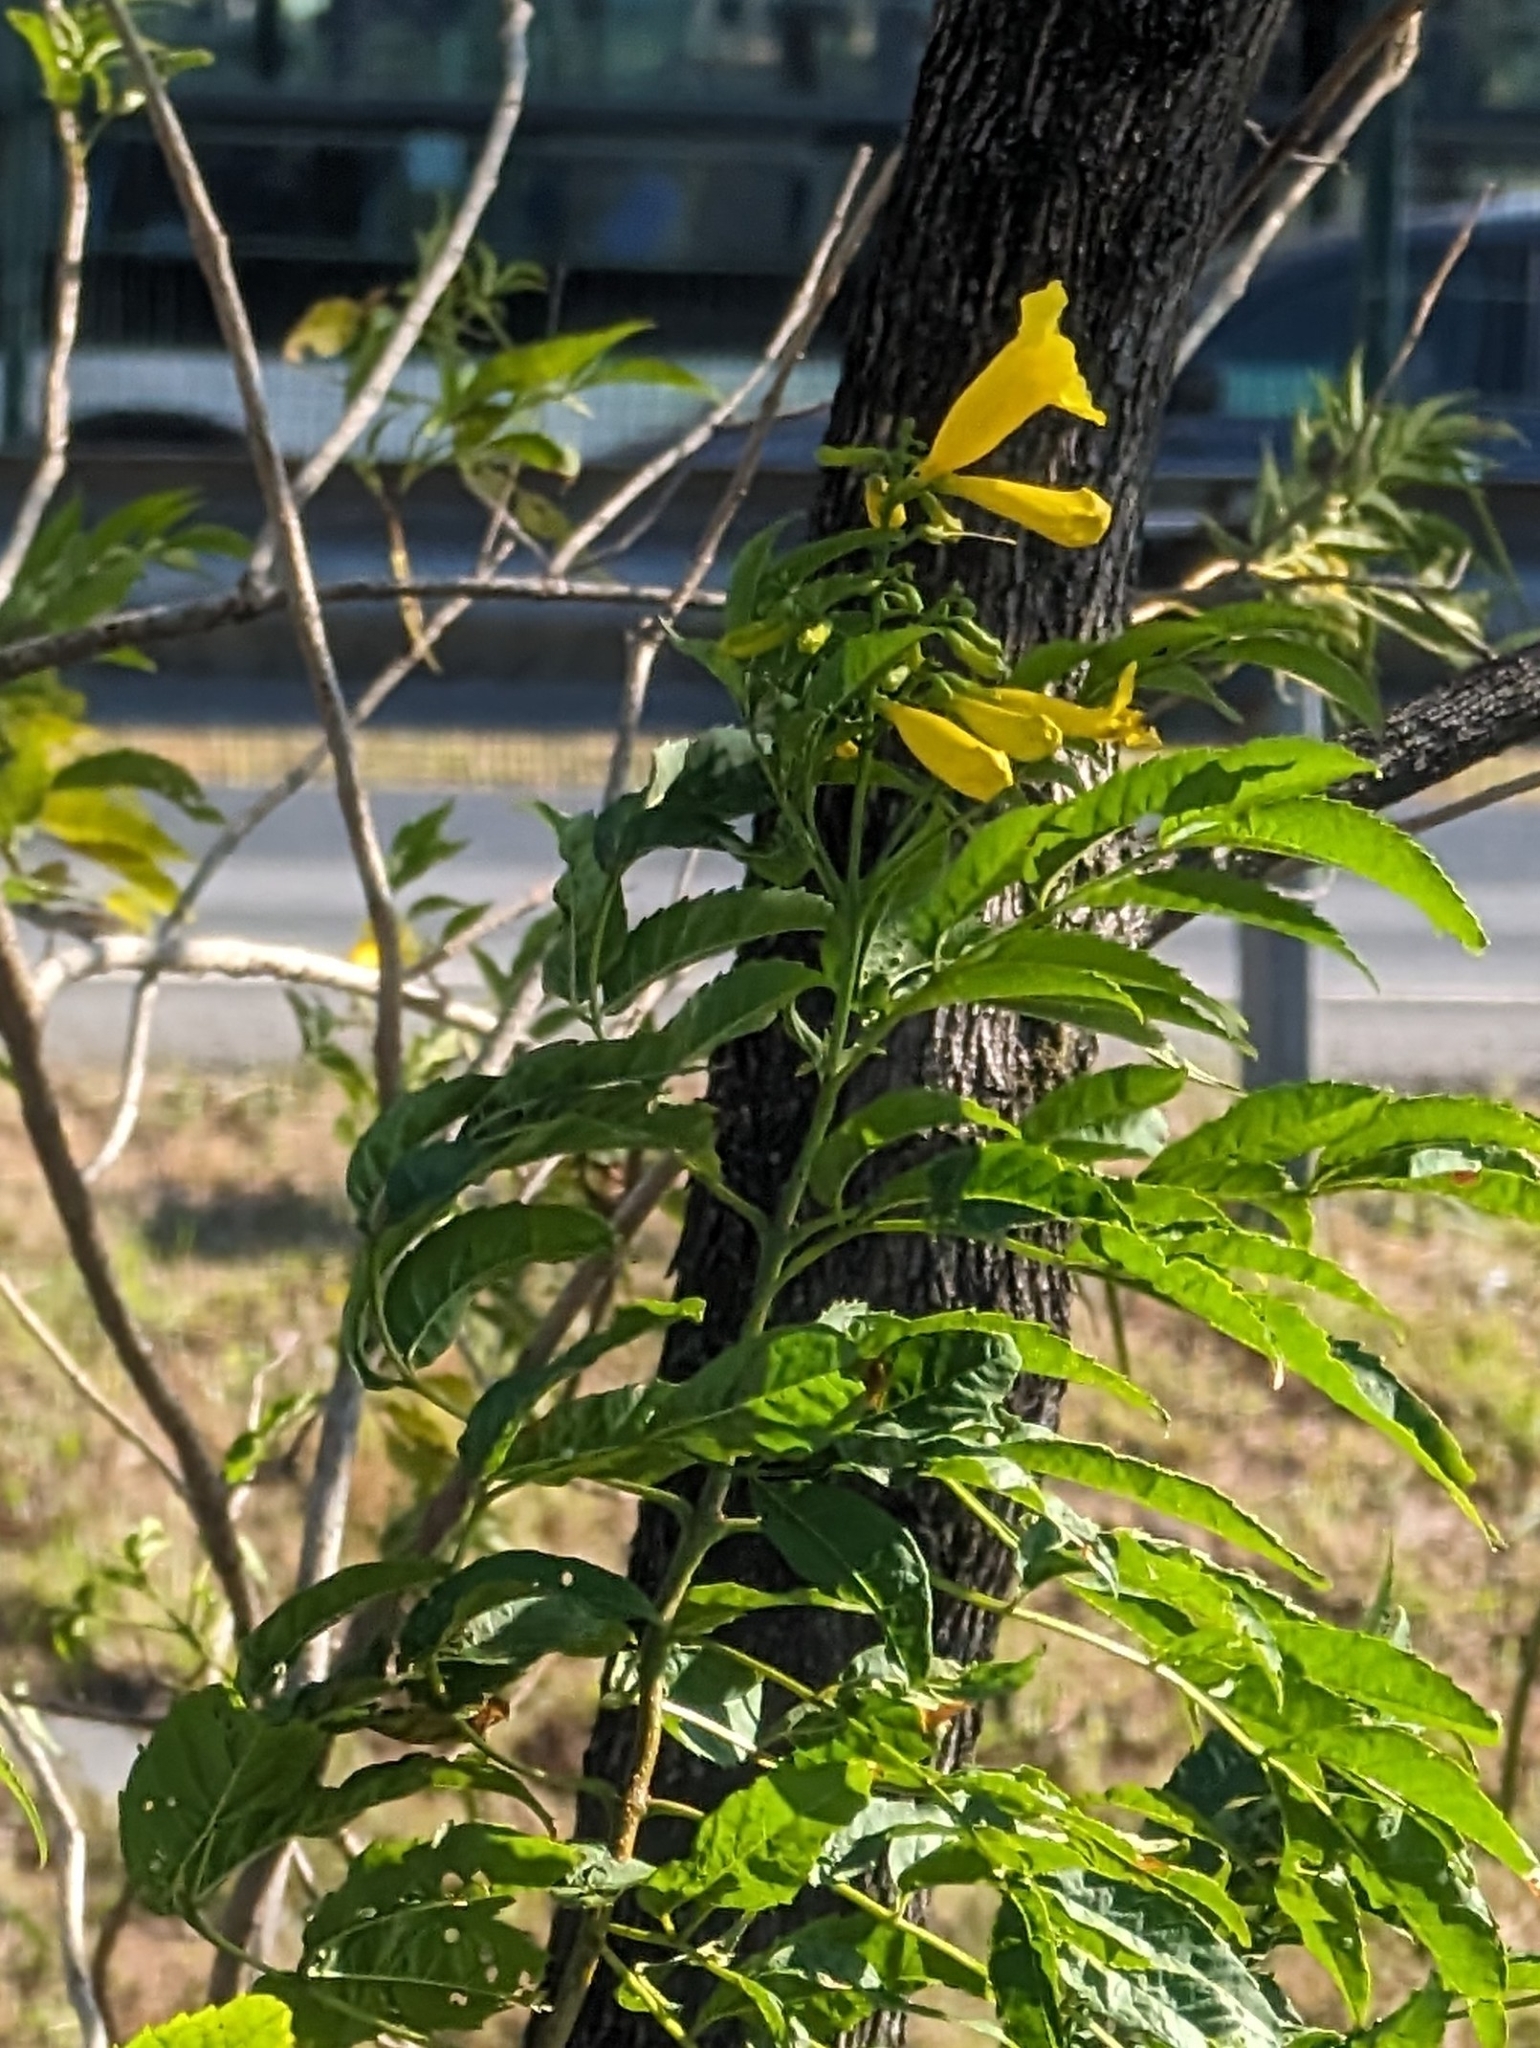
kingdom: Plantae
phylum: Tracheophyta
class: Magnoliopsida
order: Lamiales
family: Bignoniaceae
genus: Tecoma
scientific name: Tecoma stans
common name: Yellow trumpetbush
